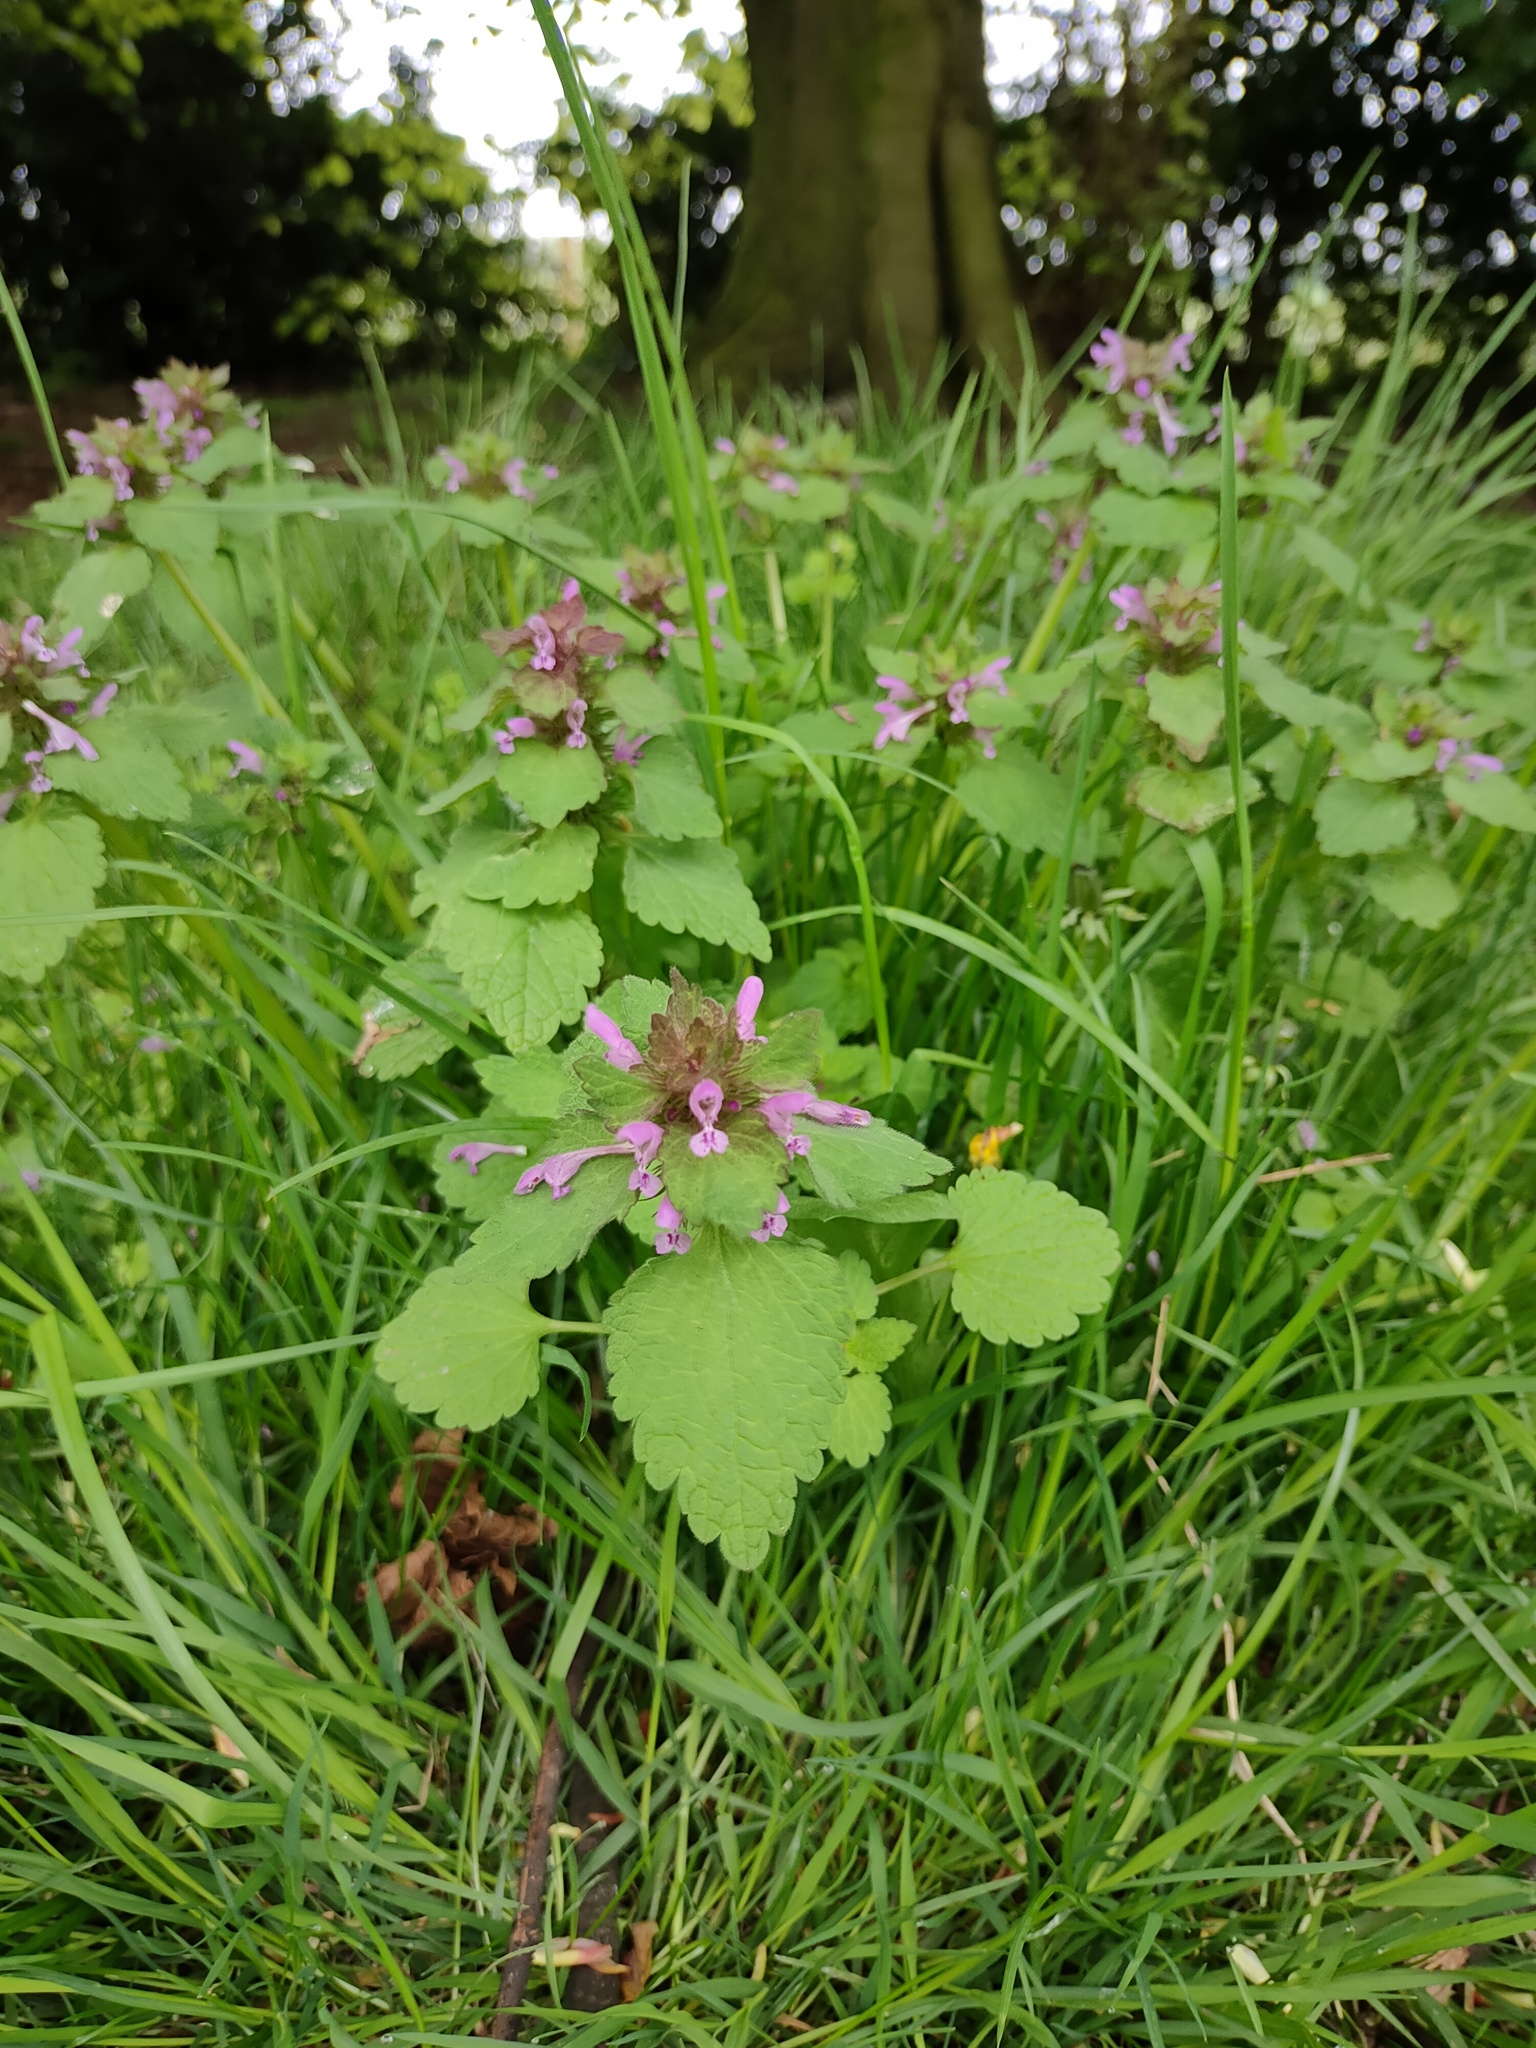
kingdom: Plantae
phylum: Tracheophyta
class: Magnoliopsida
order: Lamiales
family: Lamiaceae
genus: Lamium
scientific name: Lamium purpureum
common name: Red dead-nettle
